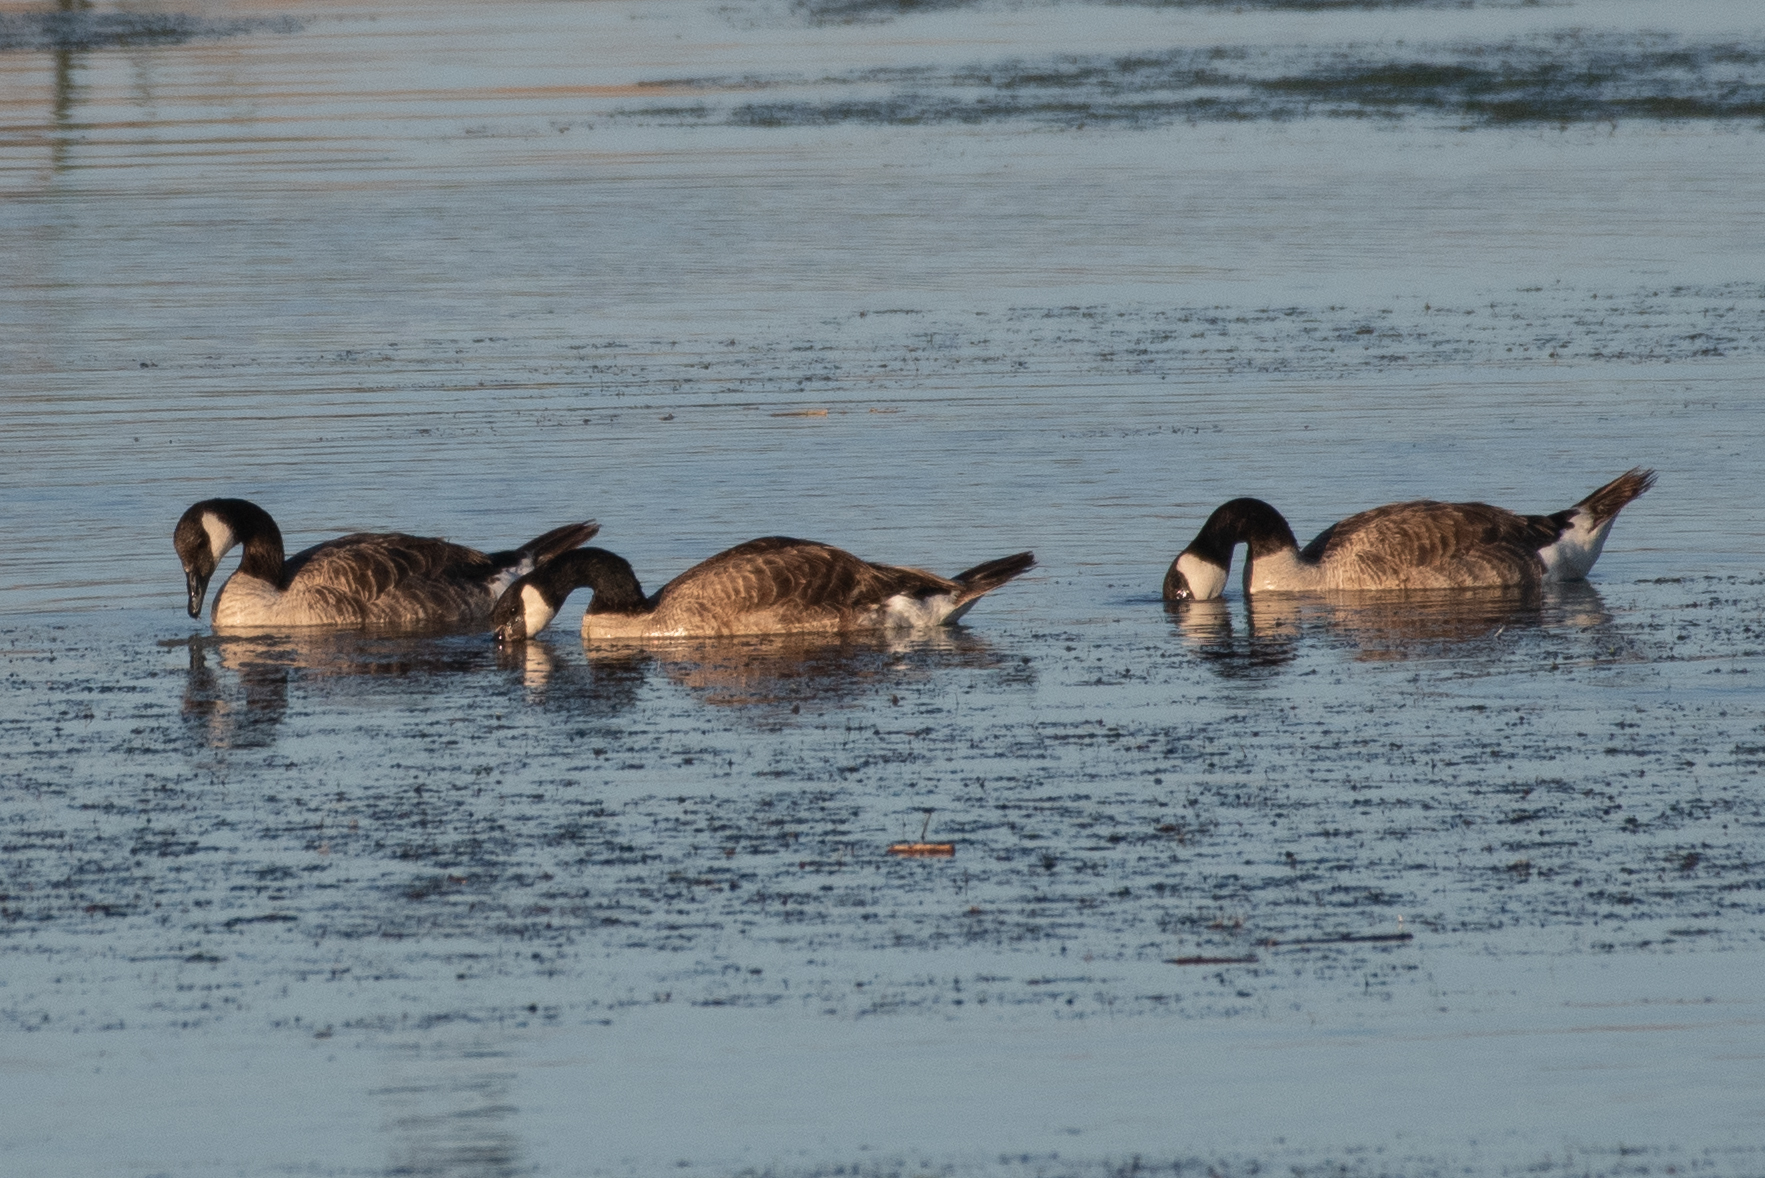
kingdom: Animalia
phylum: Chordata
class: Aves
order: Anseriformes
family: Anatidae
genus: Branta
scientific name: Branta canadensis
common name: Canada goose
